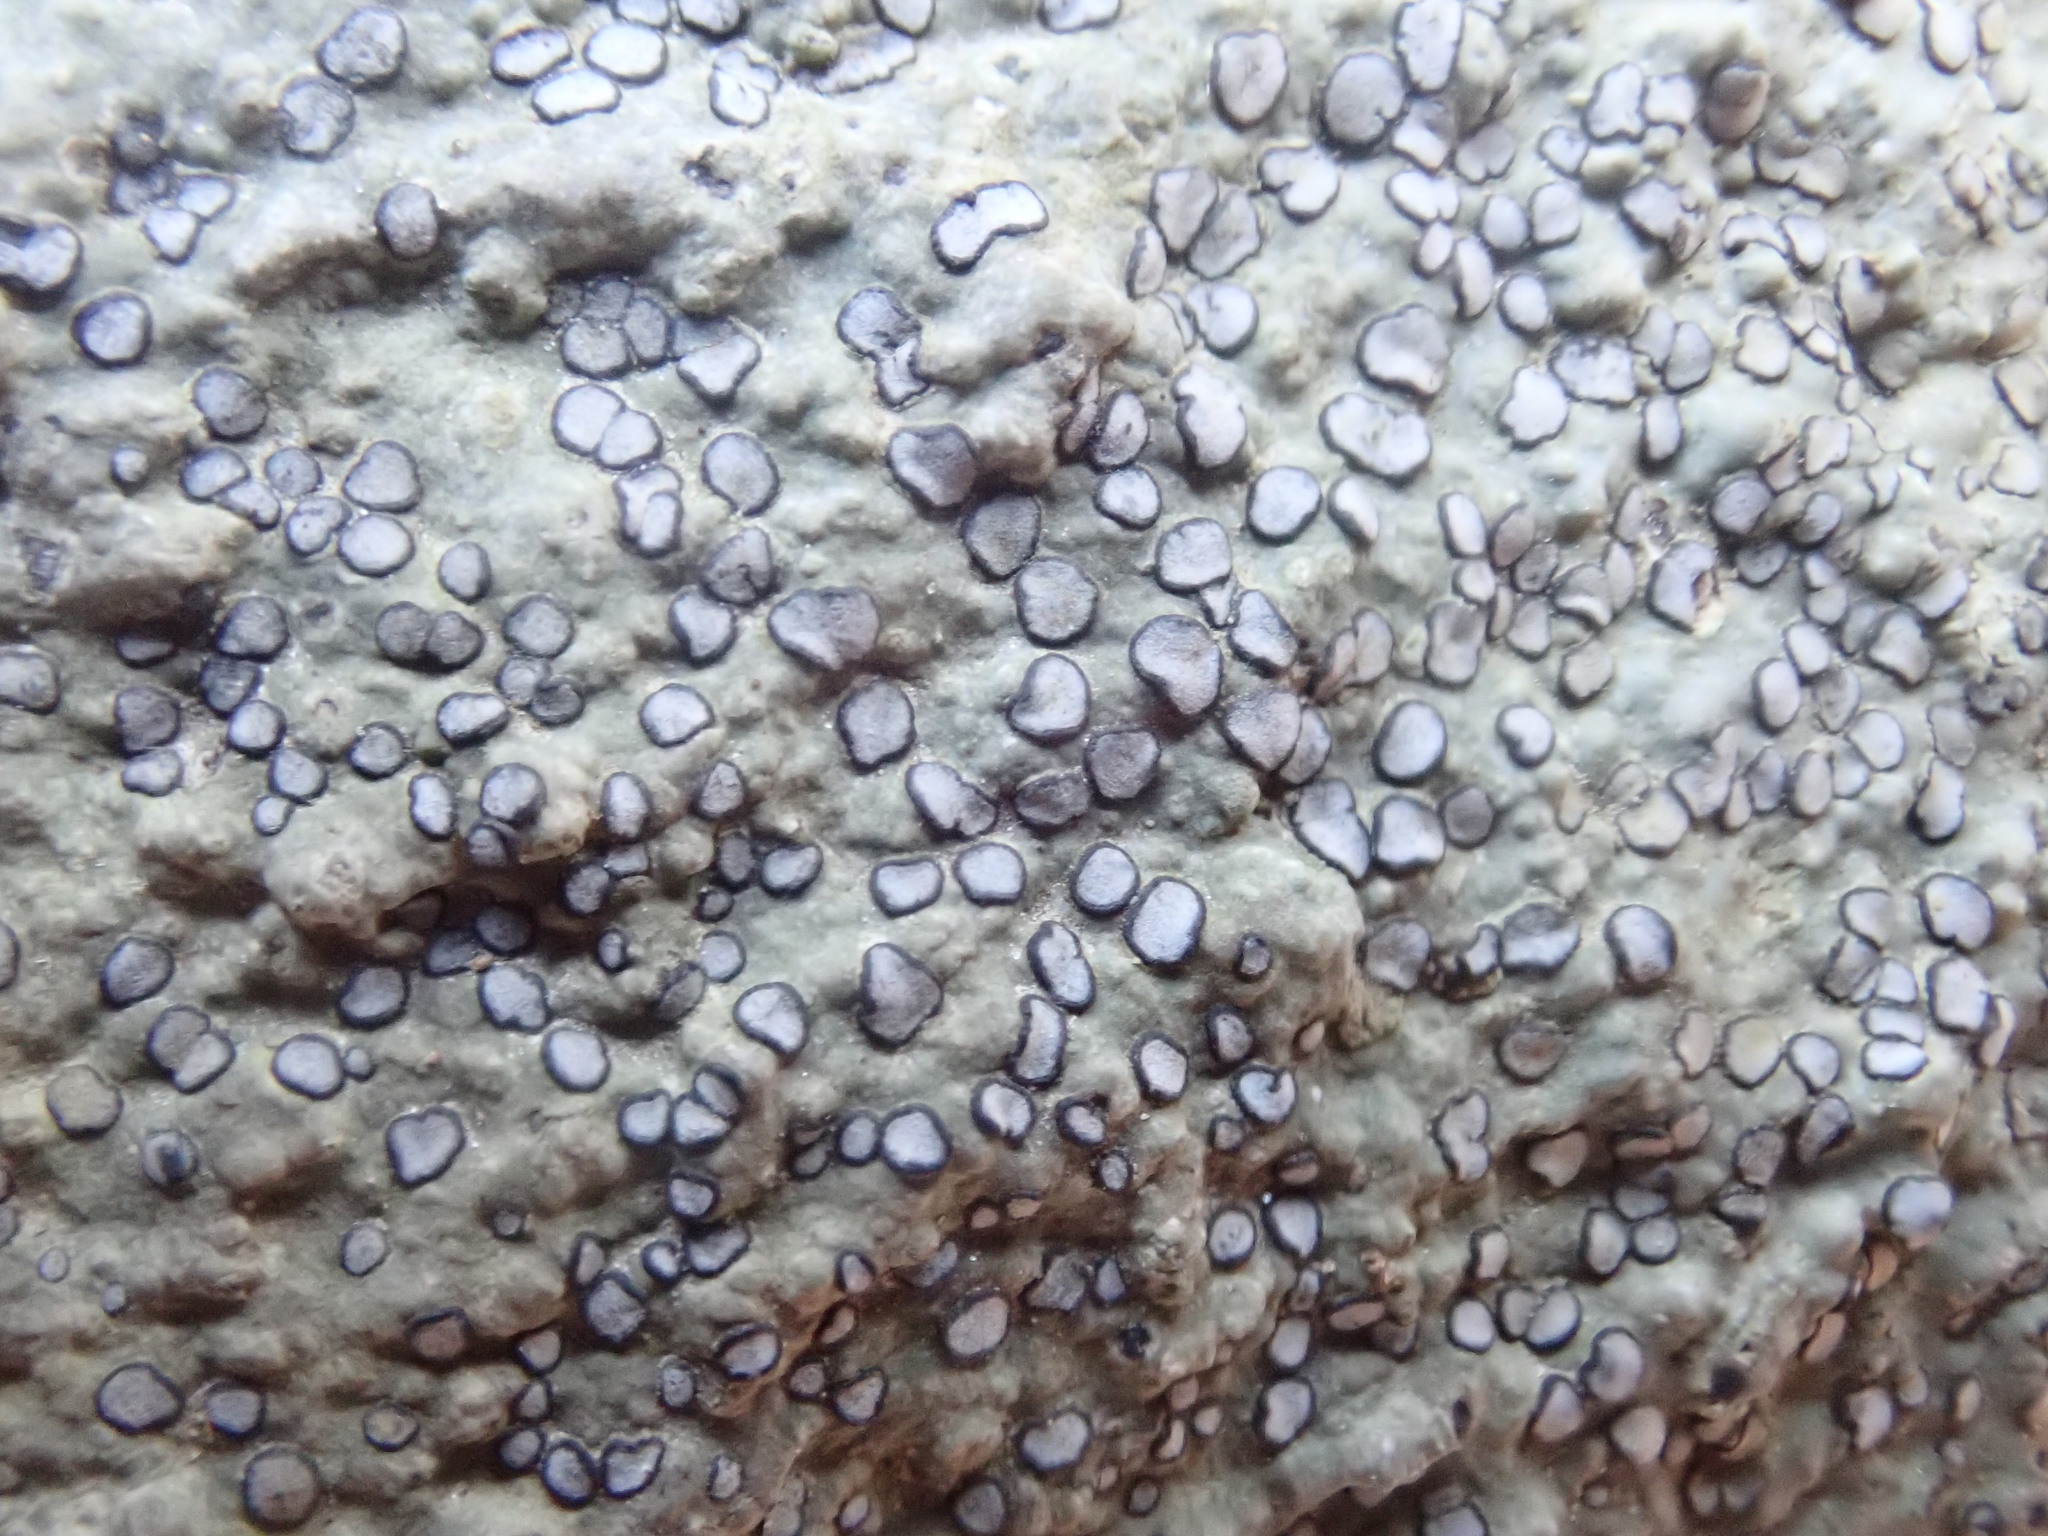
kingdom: Fungi
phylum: Ascomycota
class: Lecanoromycetes
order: Lecideales
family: Lecideaceae
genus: Porpidia
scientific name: Porpidia albocaerulescens
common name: Smokey-eyed boulder lichen
